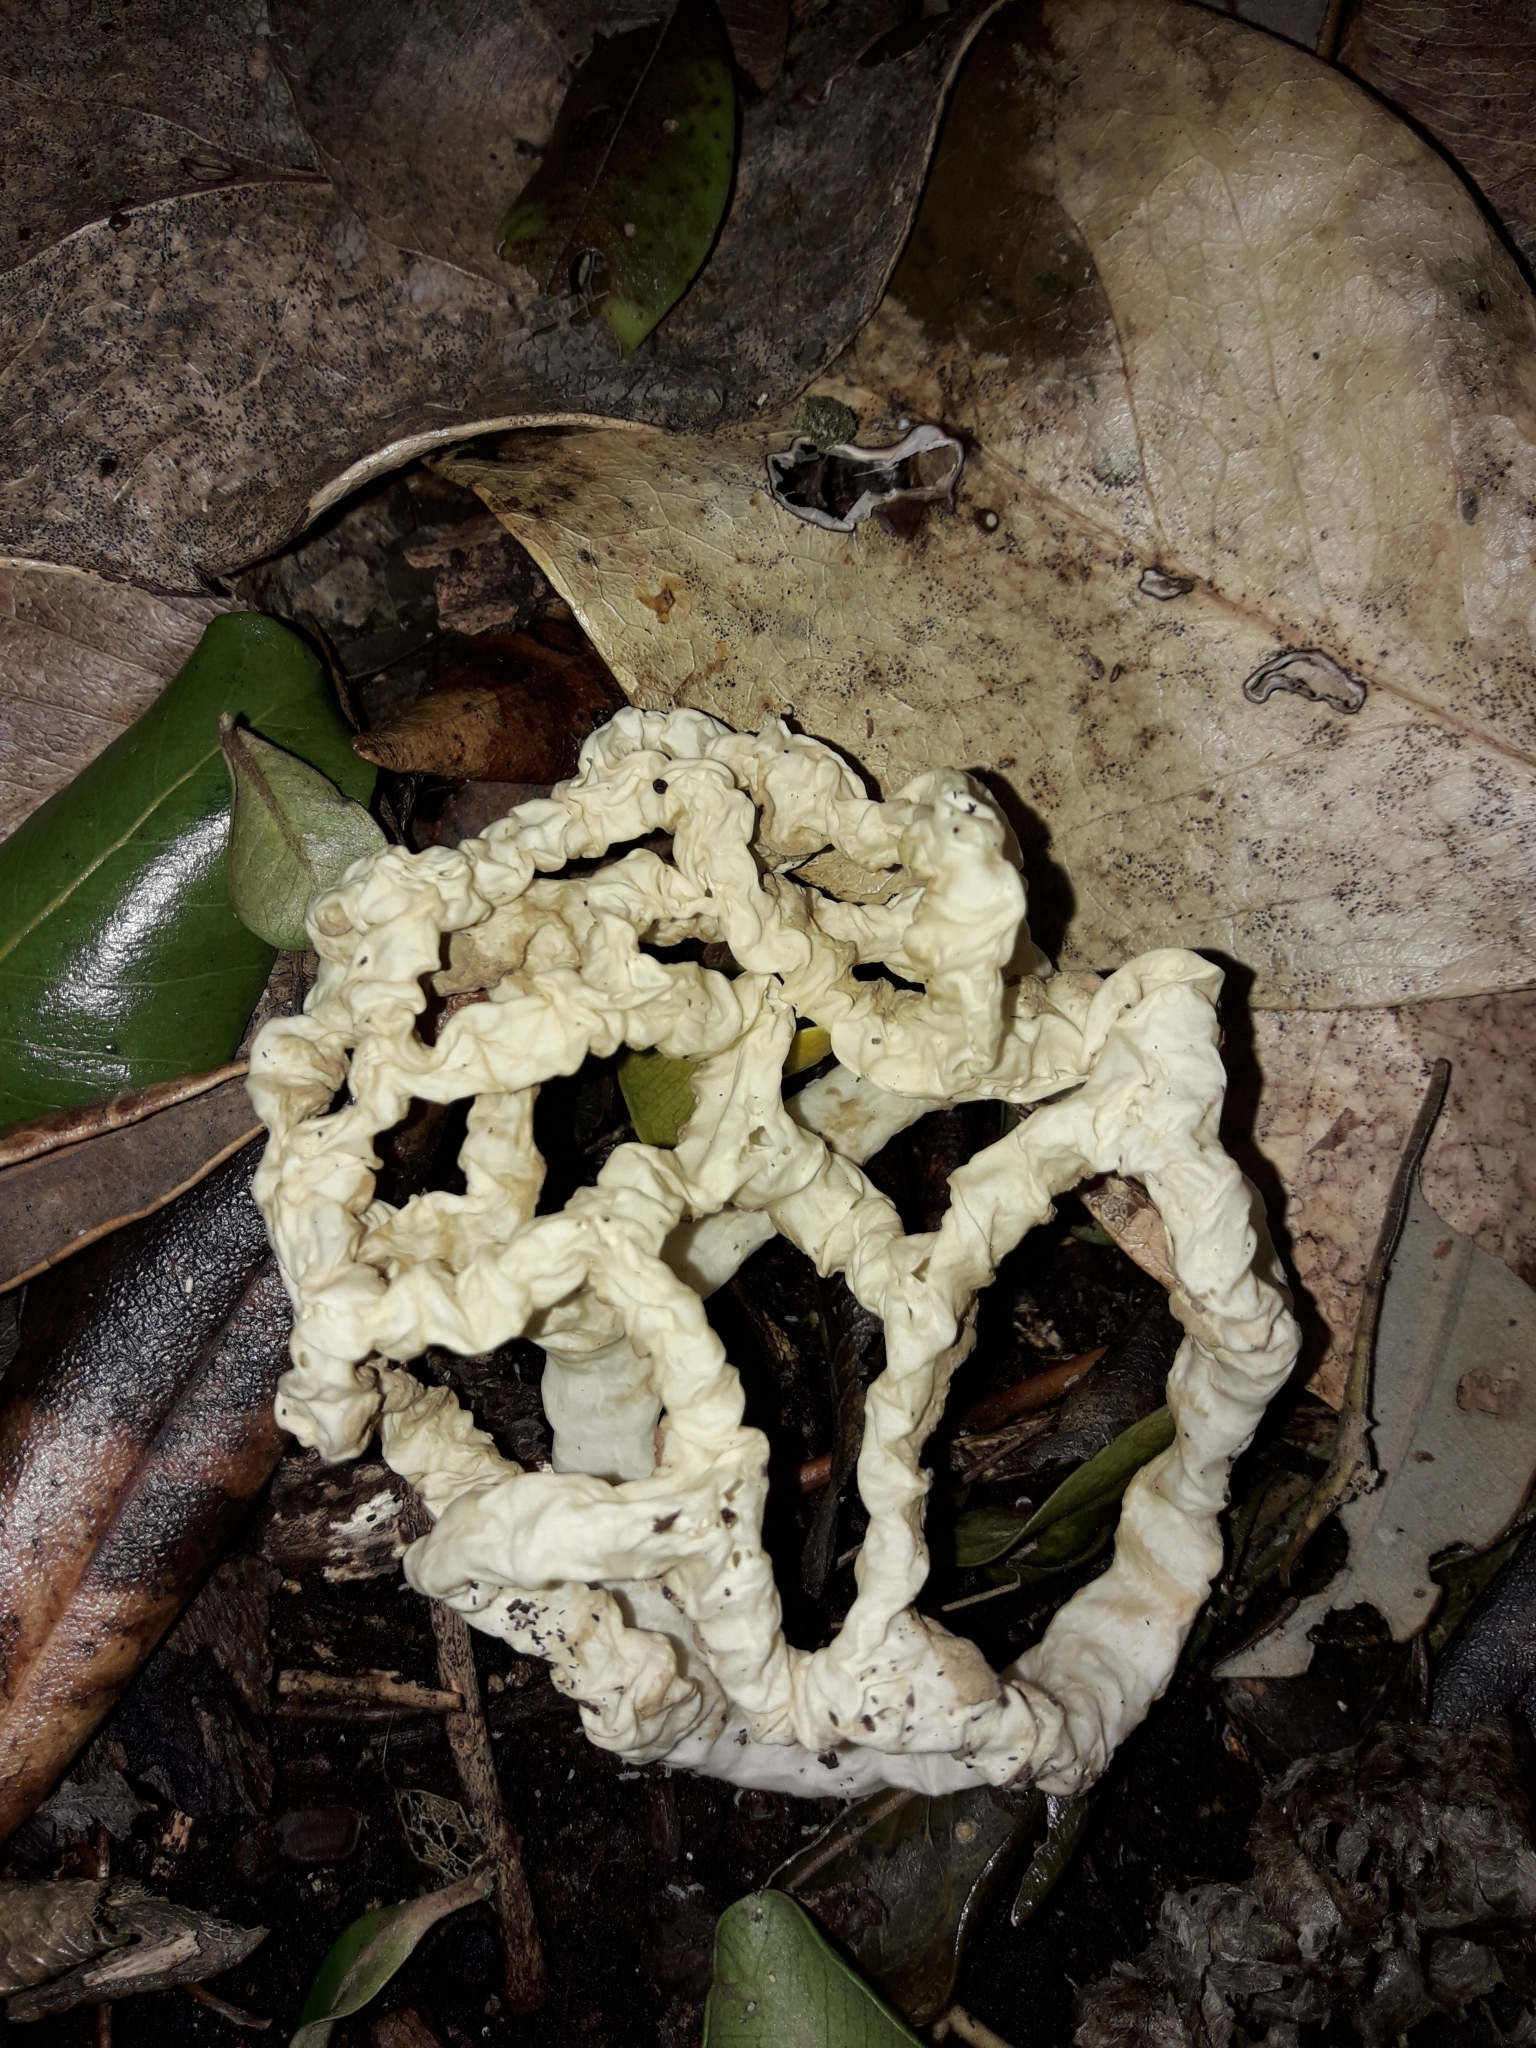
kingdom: Fungi
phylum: Basidiomycota
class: Agaricomycetes
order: Phallales
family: Phallaceae
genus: Ileodictyon
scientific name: Ileodictyon cibarium
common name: Basket fungus
